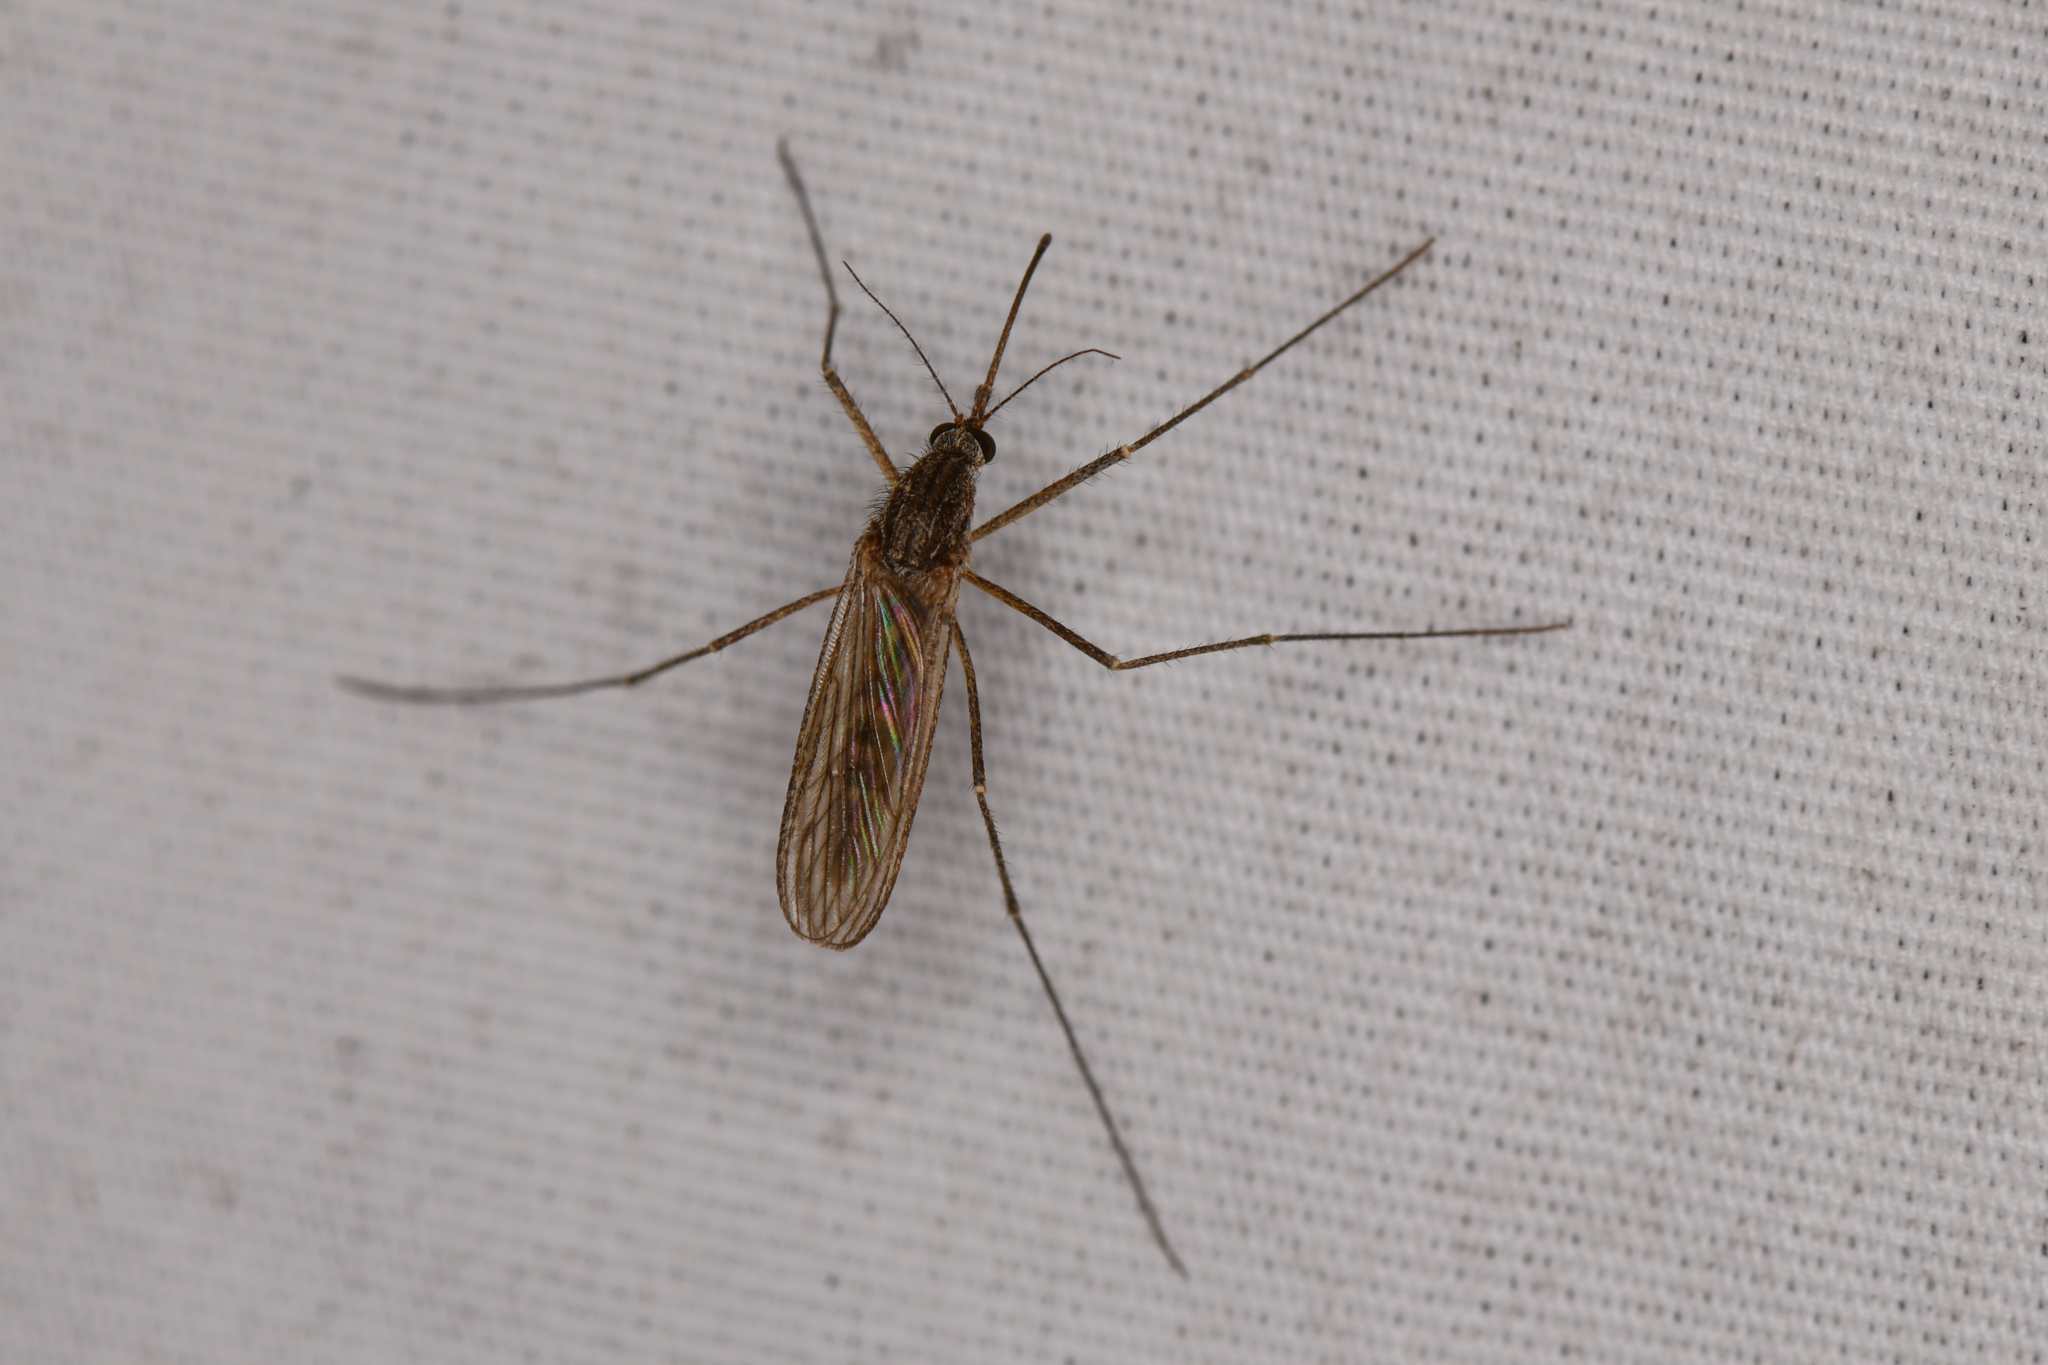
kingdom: Animalia
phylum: Arthropoda
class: Insecta
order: Diptera
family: Culicidae
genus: Culiseta
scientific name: Culiseta inornata
